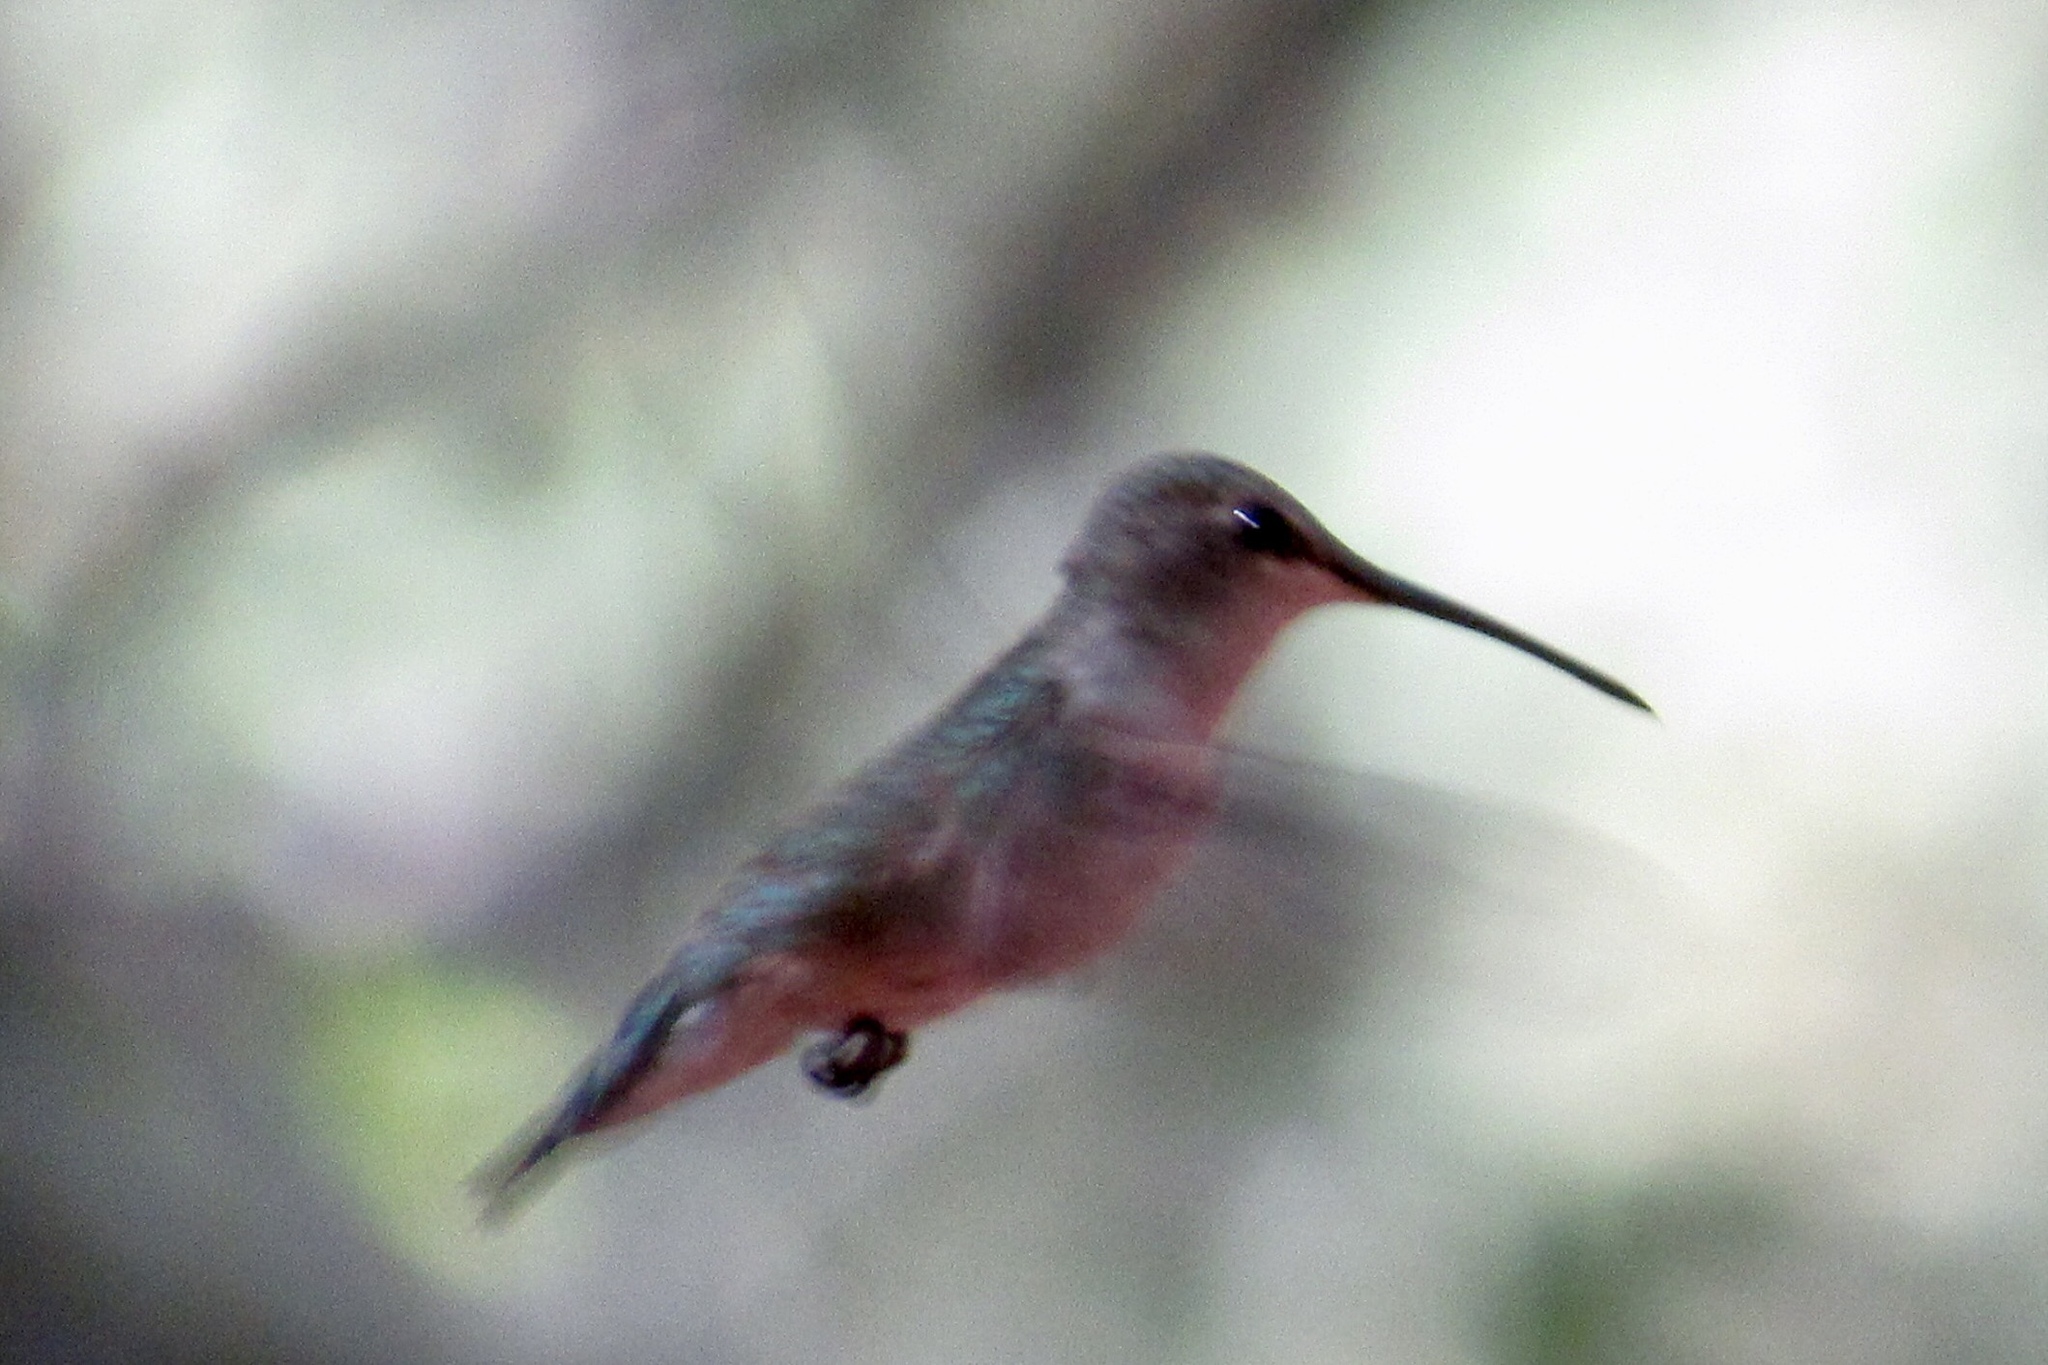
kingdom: Animalia
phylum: Chordata
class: Aves
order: Apodiformes
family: Trochilidae
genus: Archilochus
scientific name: Archilochus alexandri
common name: Black-chinned hummingbird
